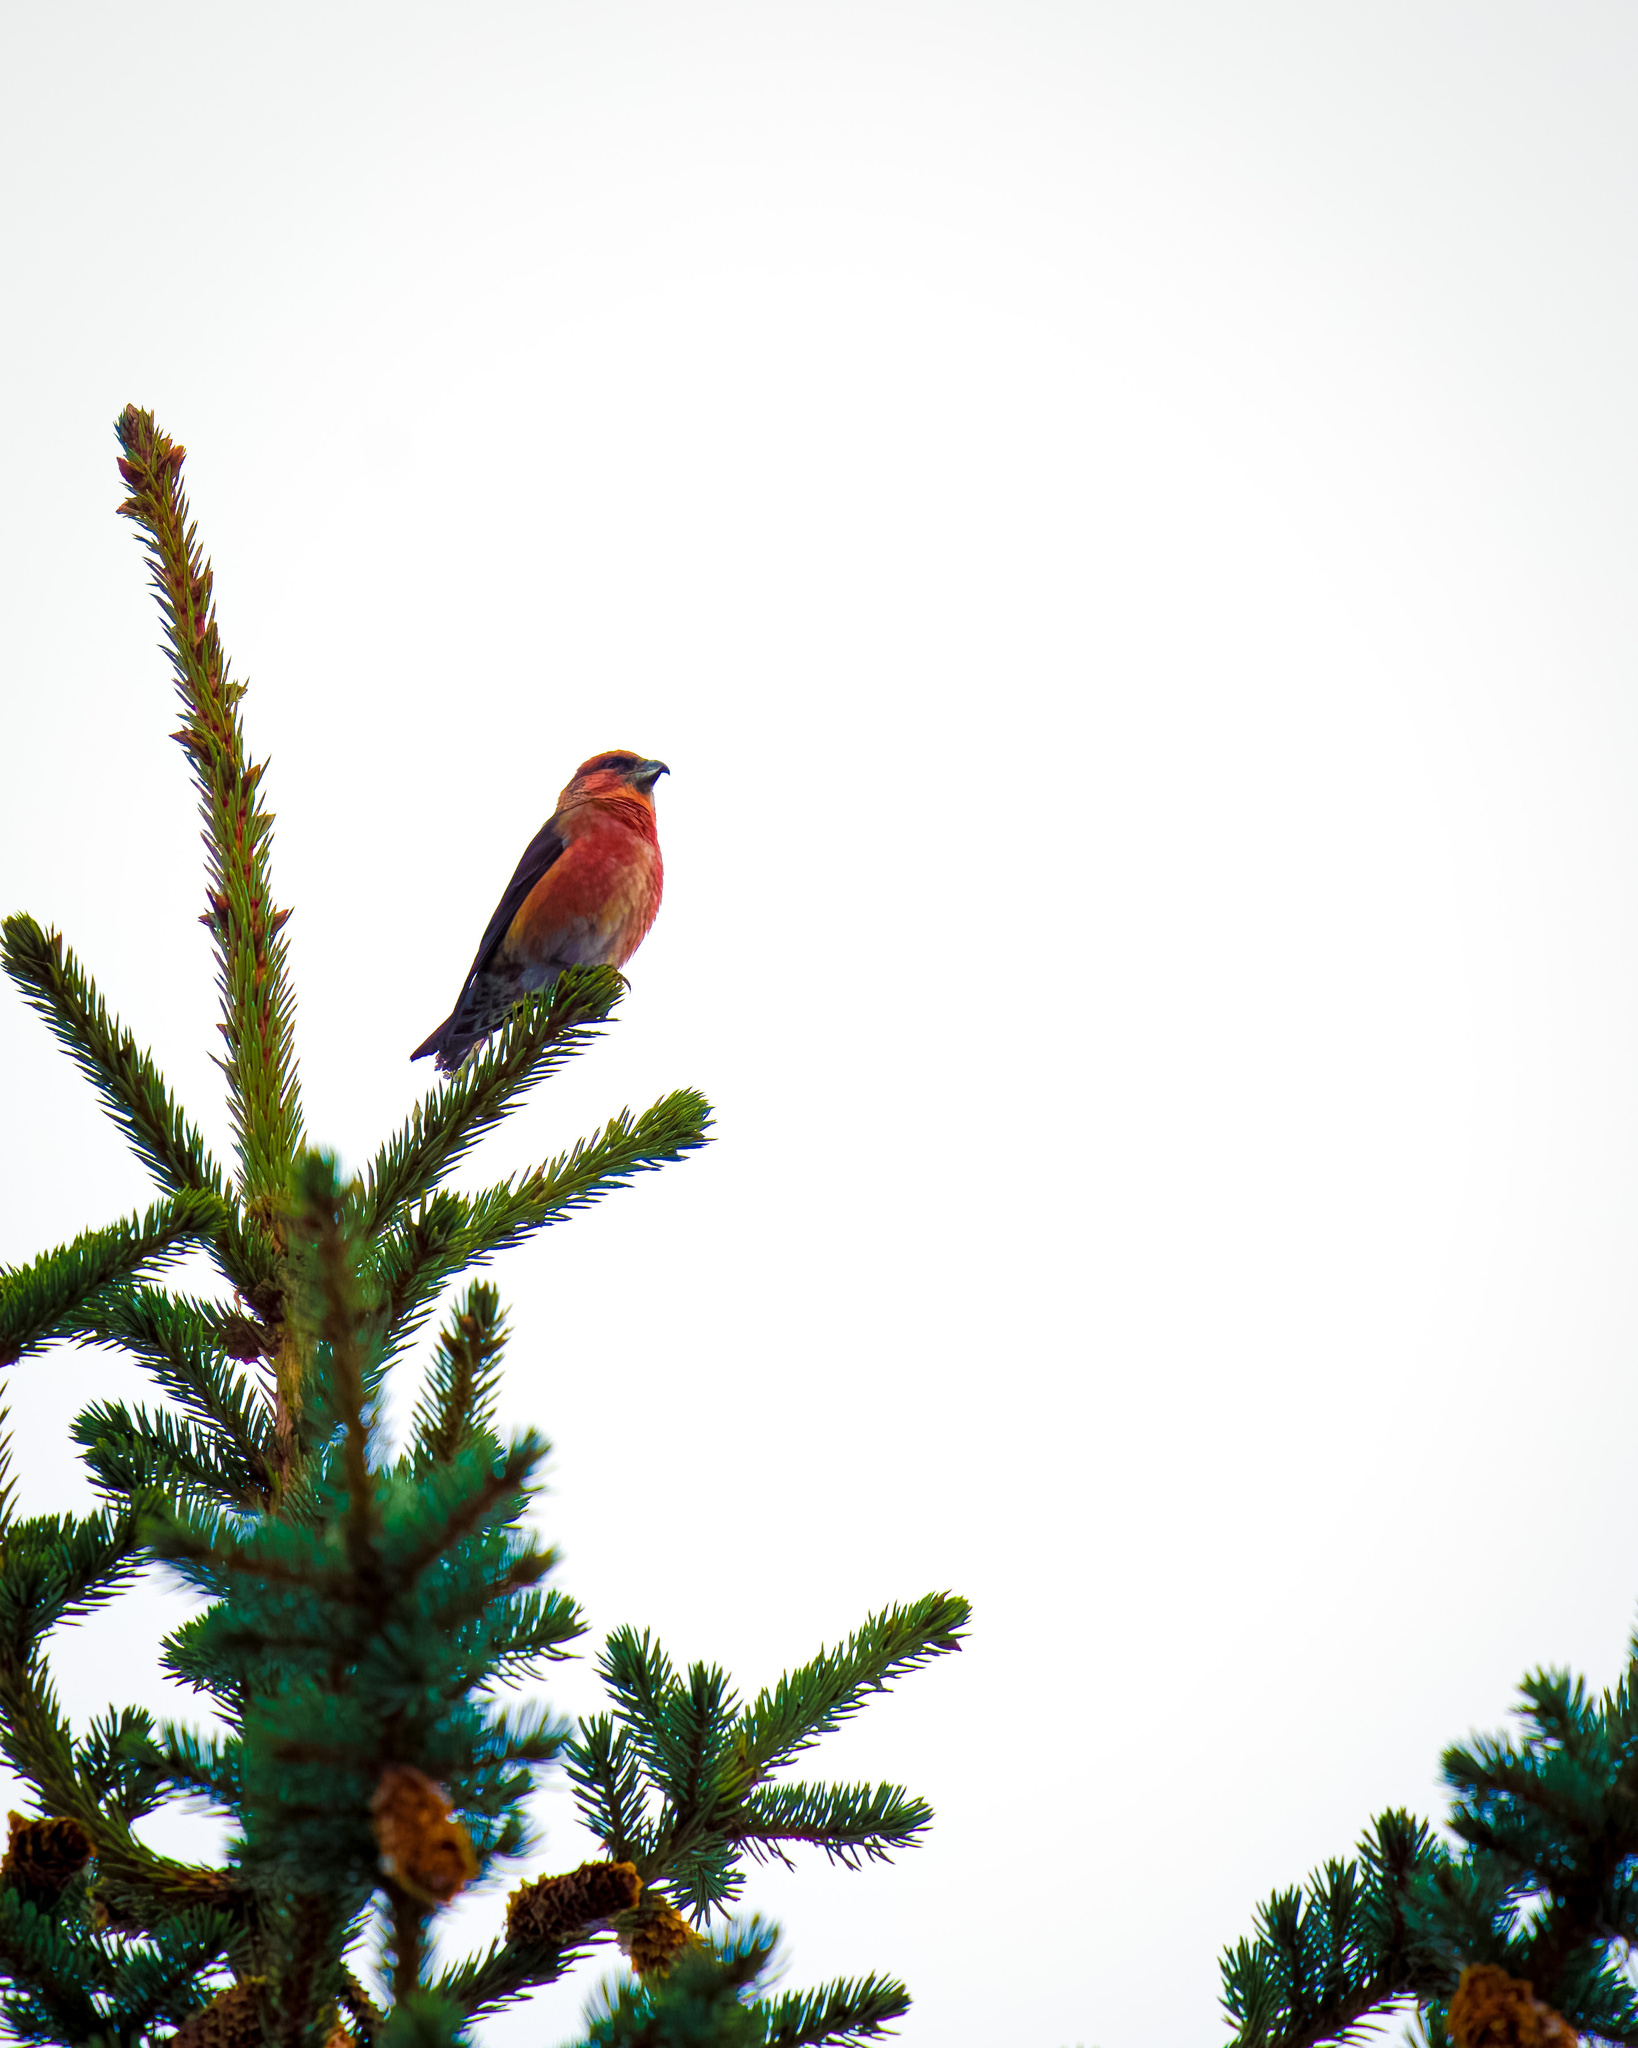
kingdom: Animalia
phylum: Chordata
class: Aves
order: Passeriformes
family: Fringillidae
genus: Loxia
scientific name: Loxia curvirostra
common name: Red crossbill
